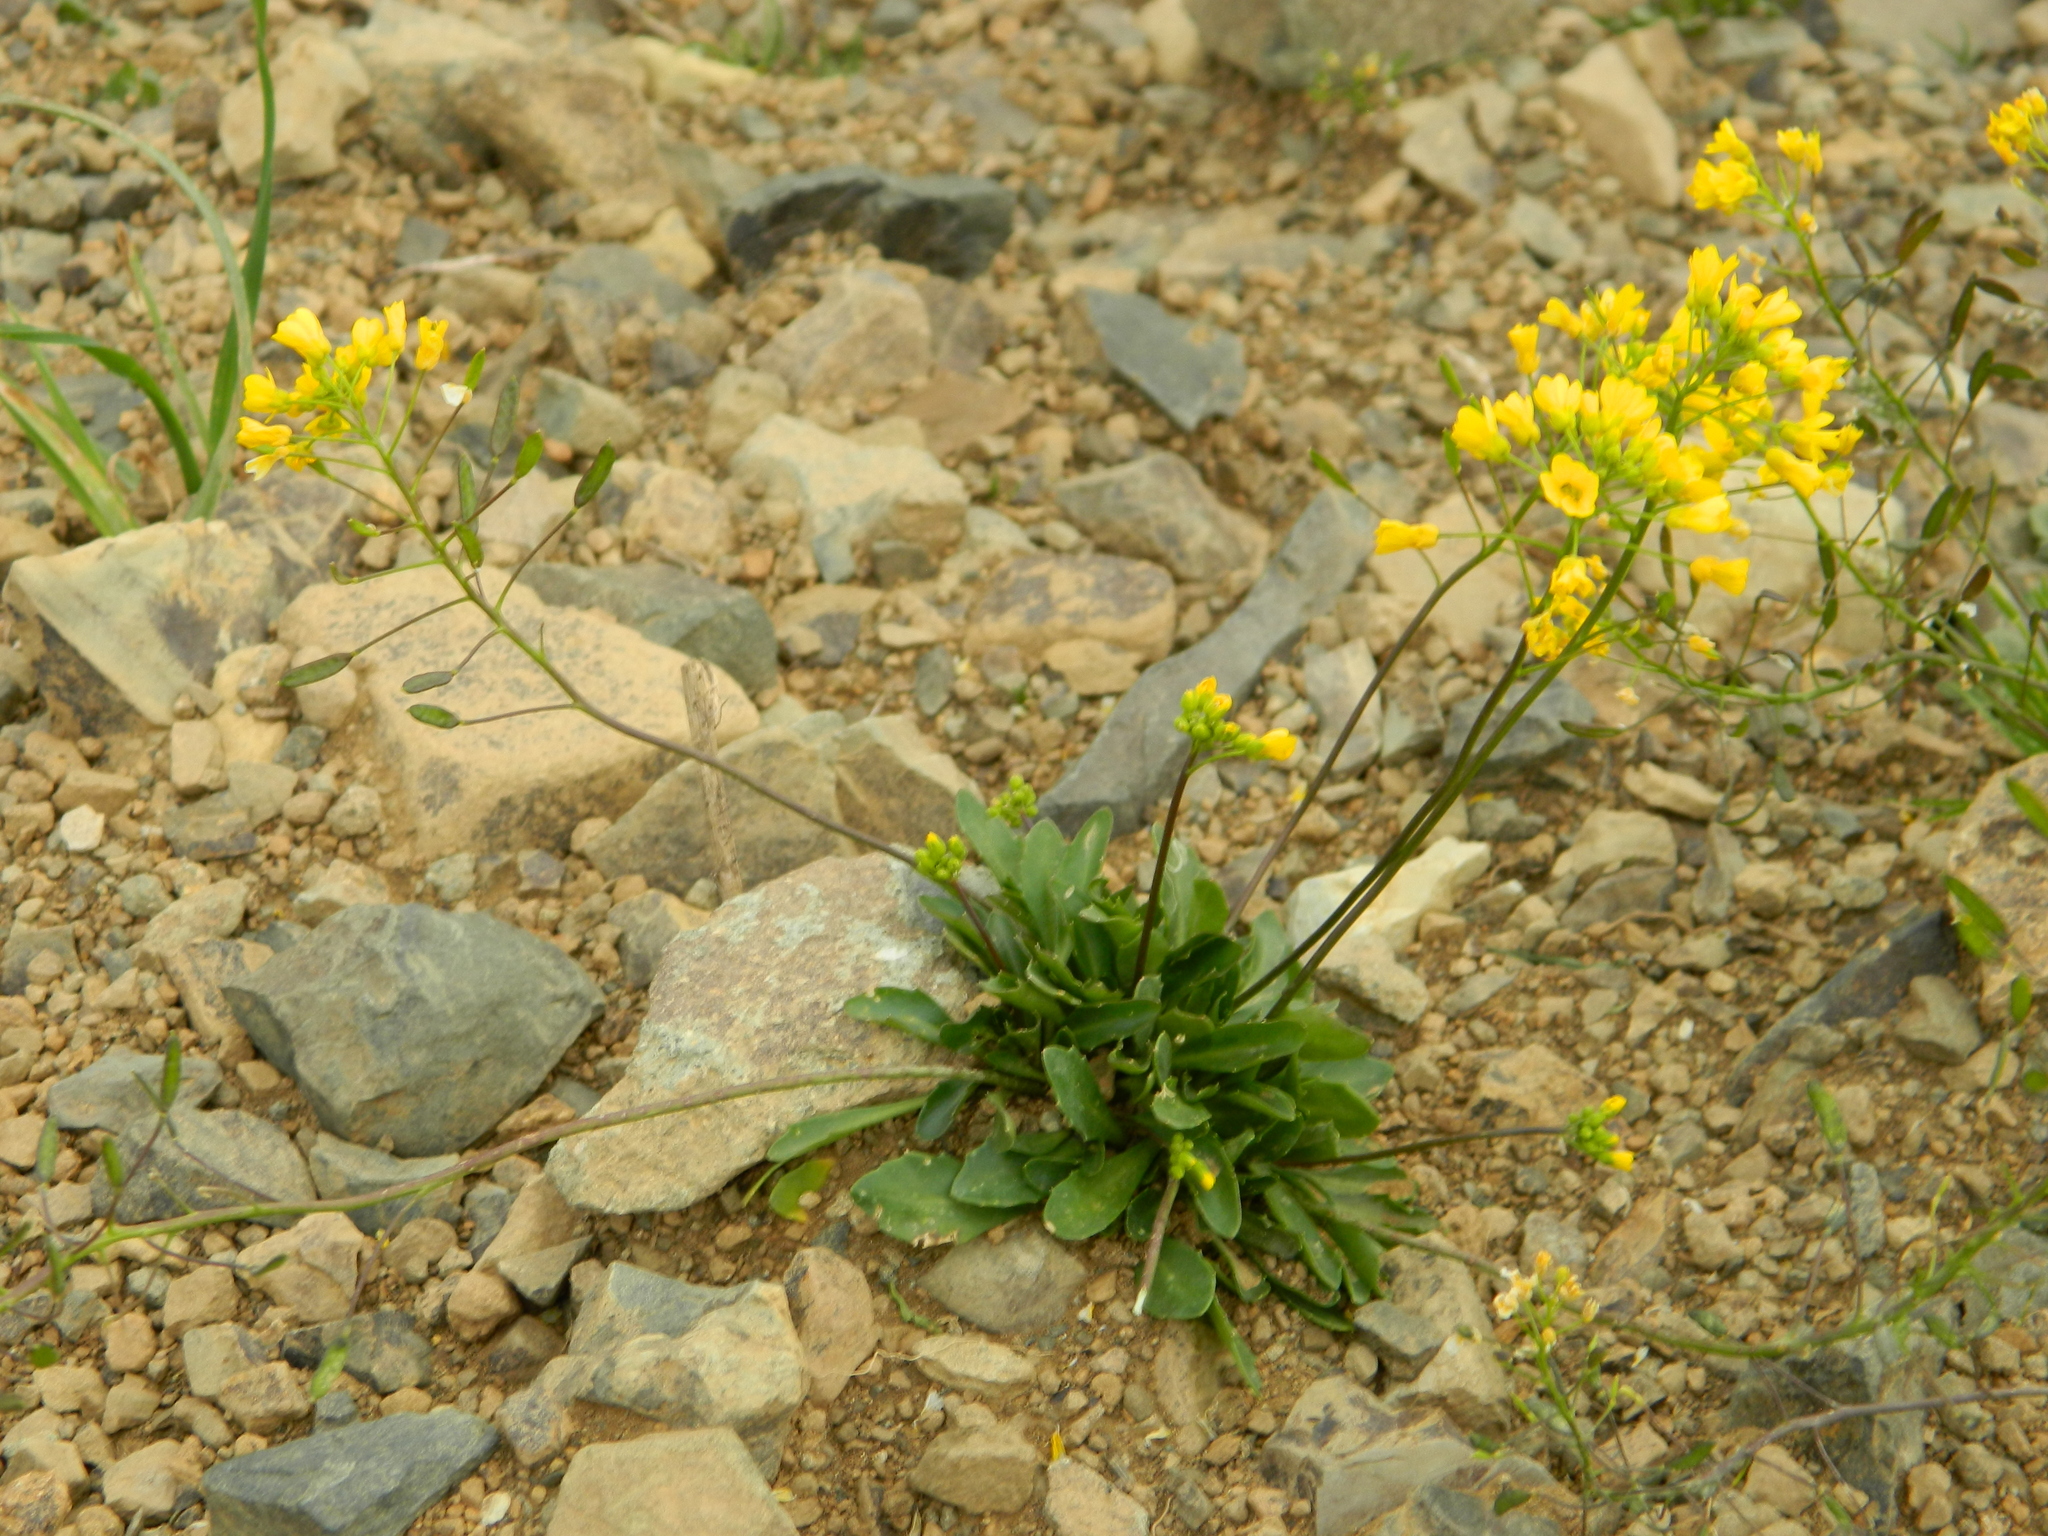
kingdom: Plantae
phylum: Tracheophyta
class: Magnoliopsida
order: Brassicales
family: Brassicaceae
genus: Draba
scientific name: Draba hispida
